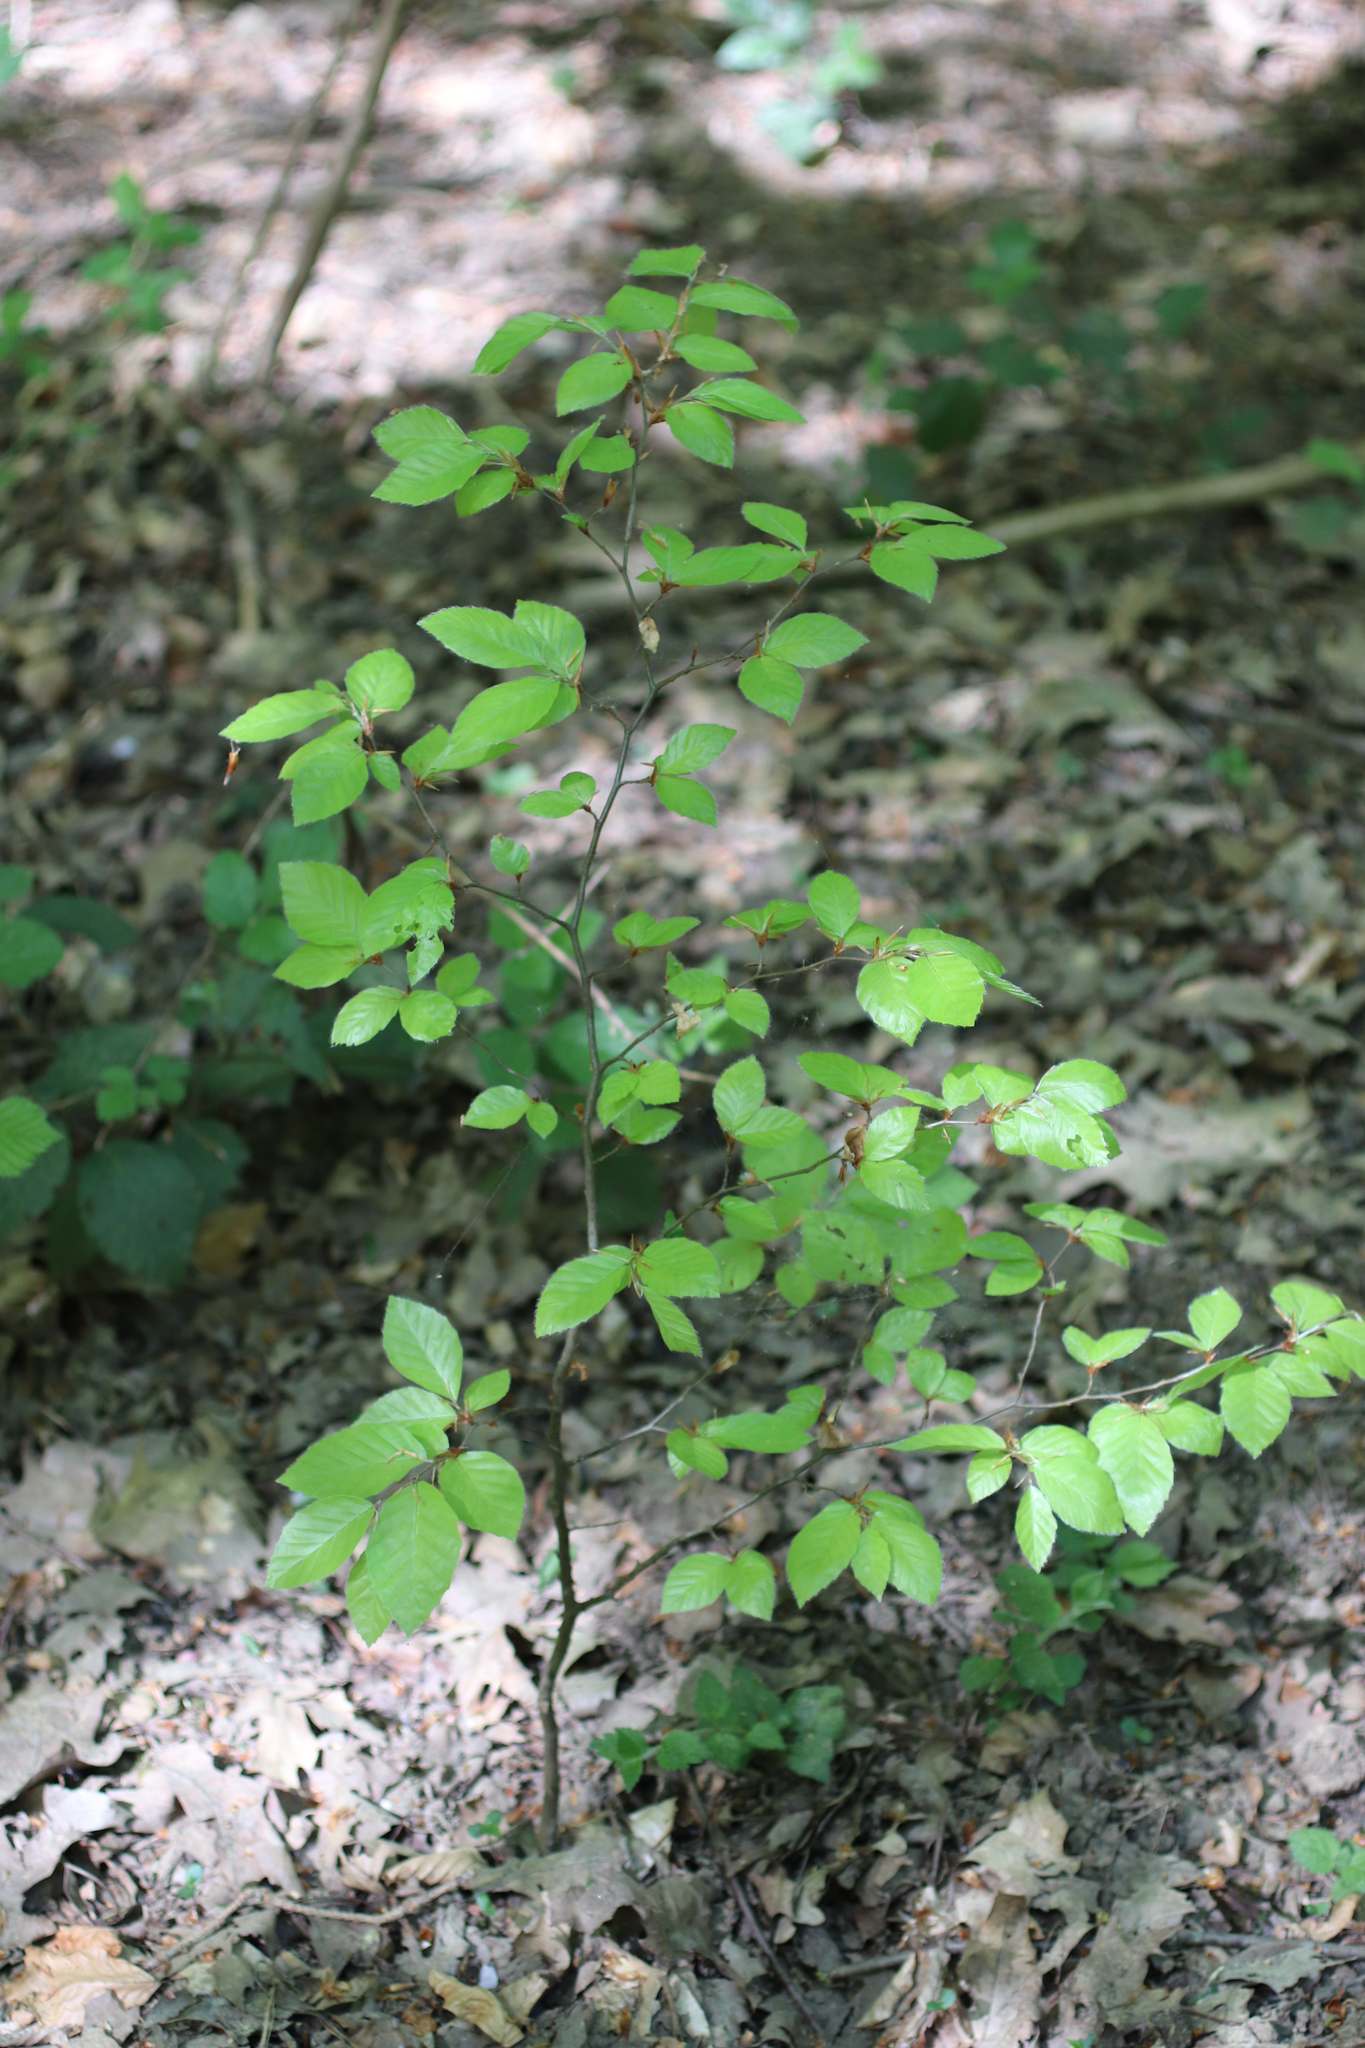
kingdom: Plantae
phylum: Tracheophyta
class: Magnoliopsida
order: Fagales
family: Fagaceae
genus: Fagus
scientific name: Fagus sylvatica
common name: Beech
